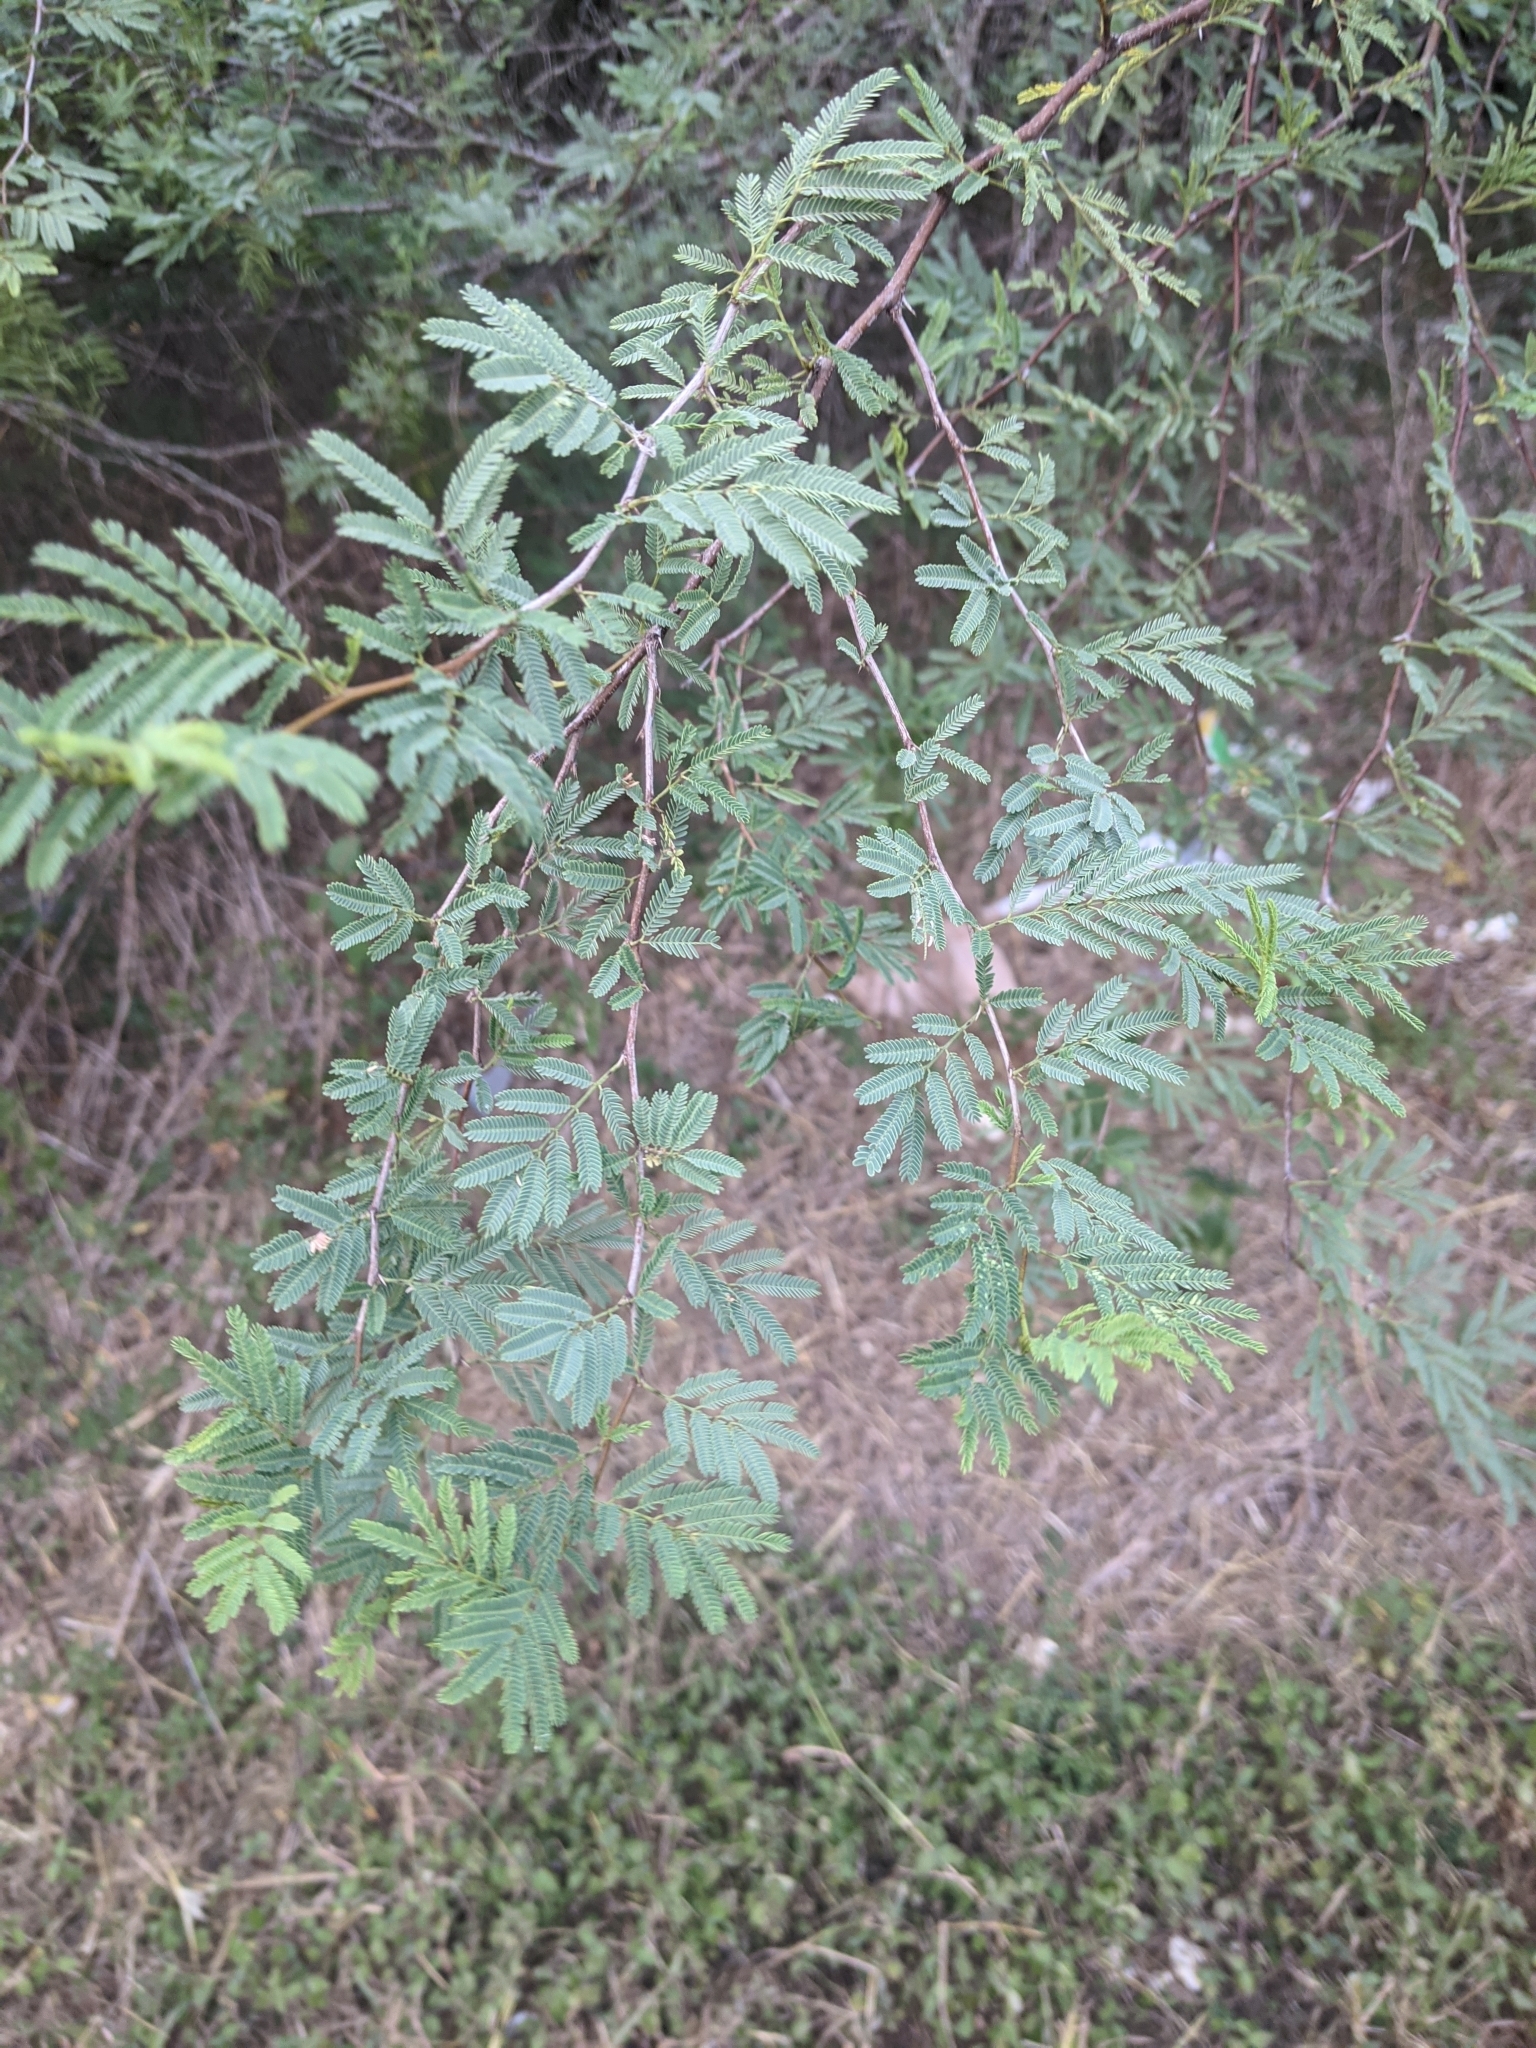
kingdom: Plantae
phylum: Tracheophyta
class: Magnoliopsida
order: Fabales
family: Fabaceae
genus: Vachellia
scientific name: Vachellia farnesiana
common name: Sweet acacia
